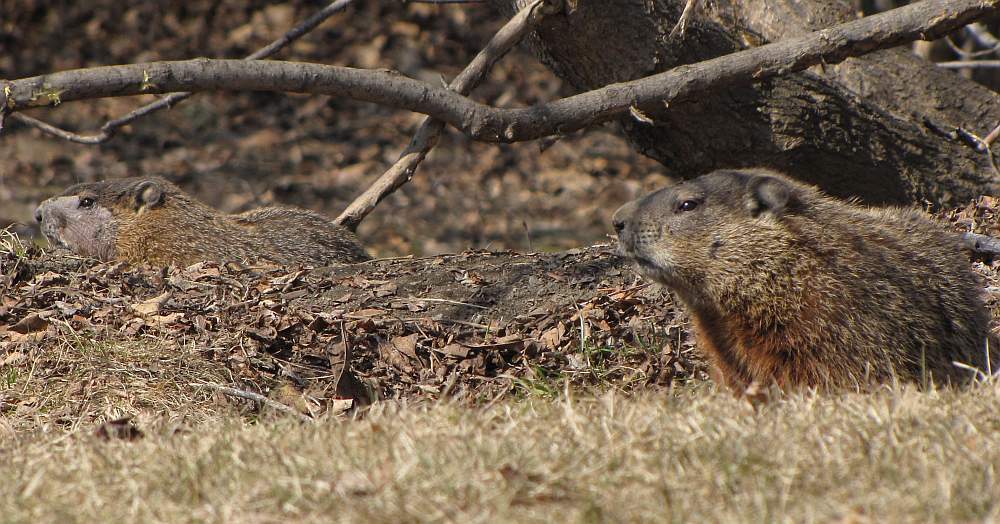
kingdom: Animalia
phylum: Chordata
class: Mammalia
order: Rodentia
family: Sciuridae
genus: Marmota
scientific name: Marmota monax
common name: Groundhog
